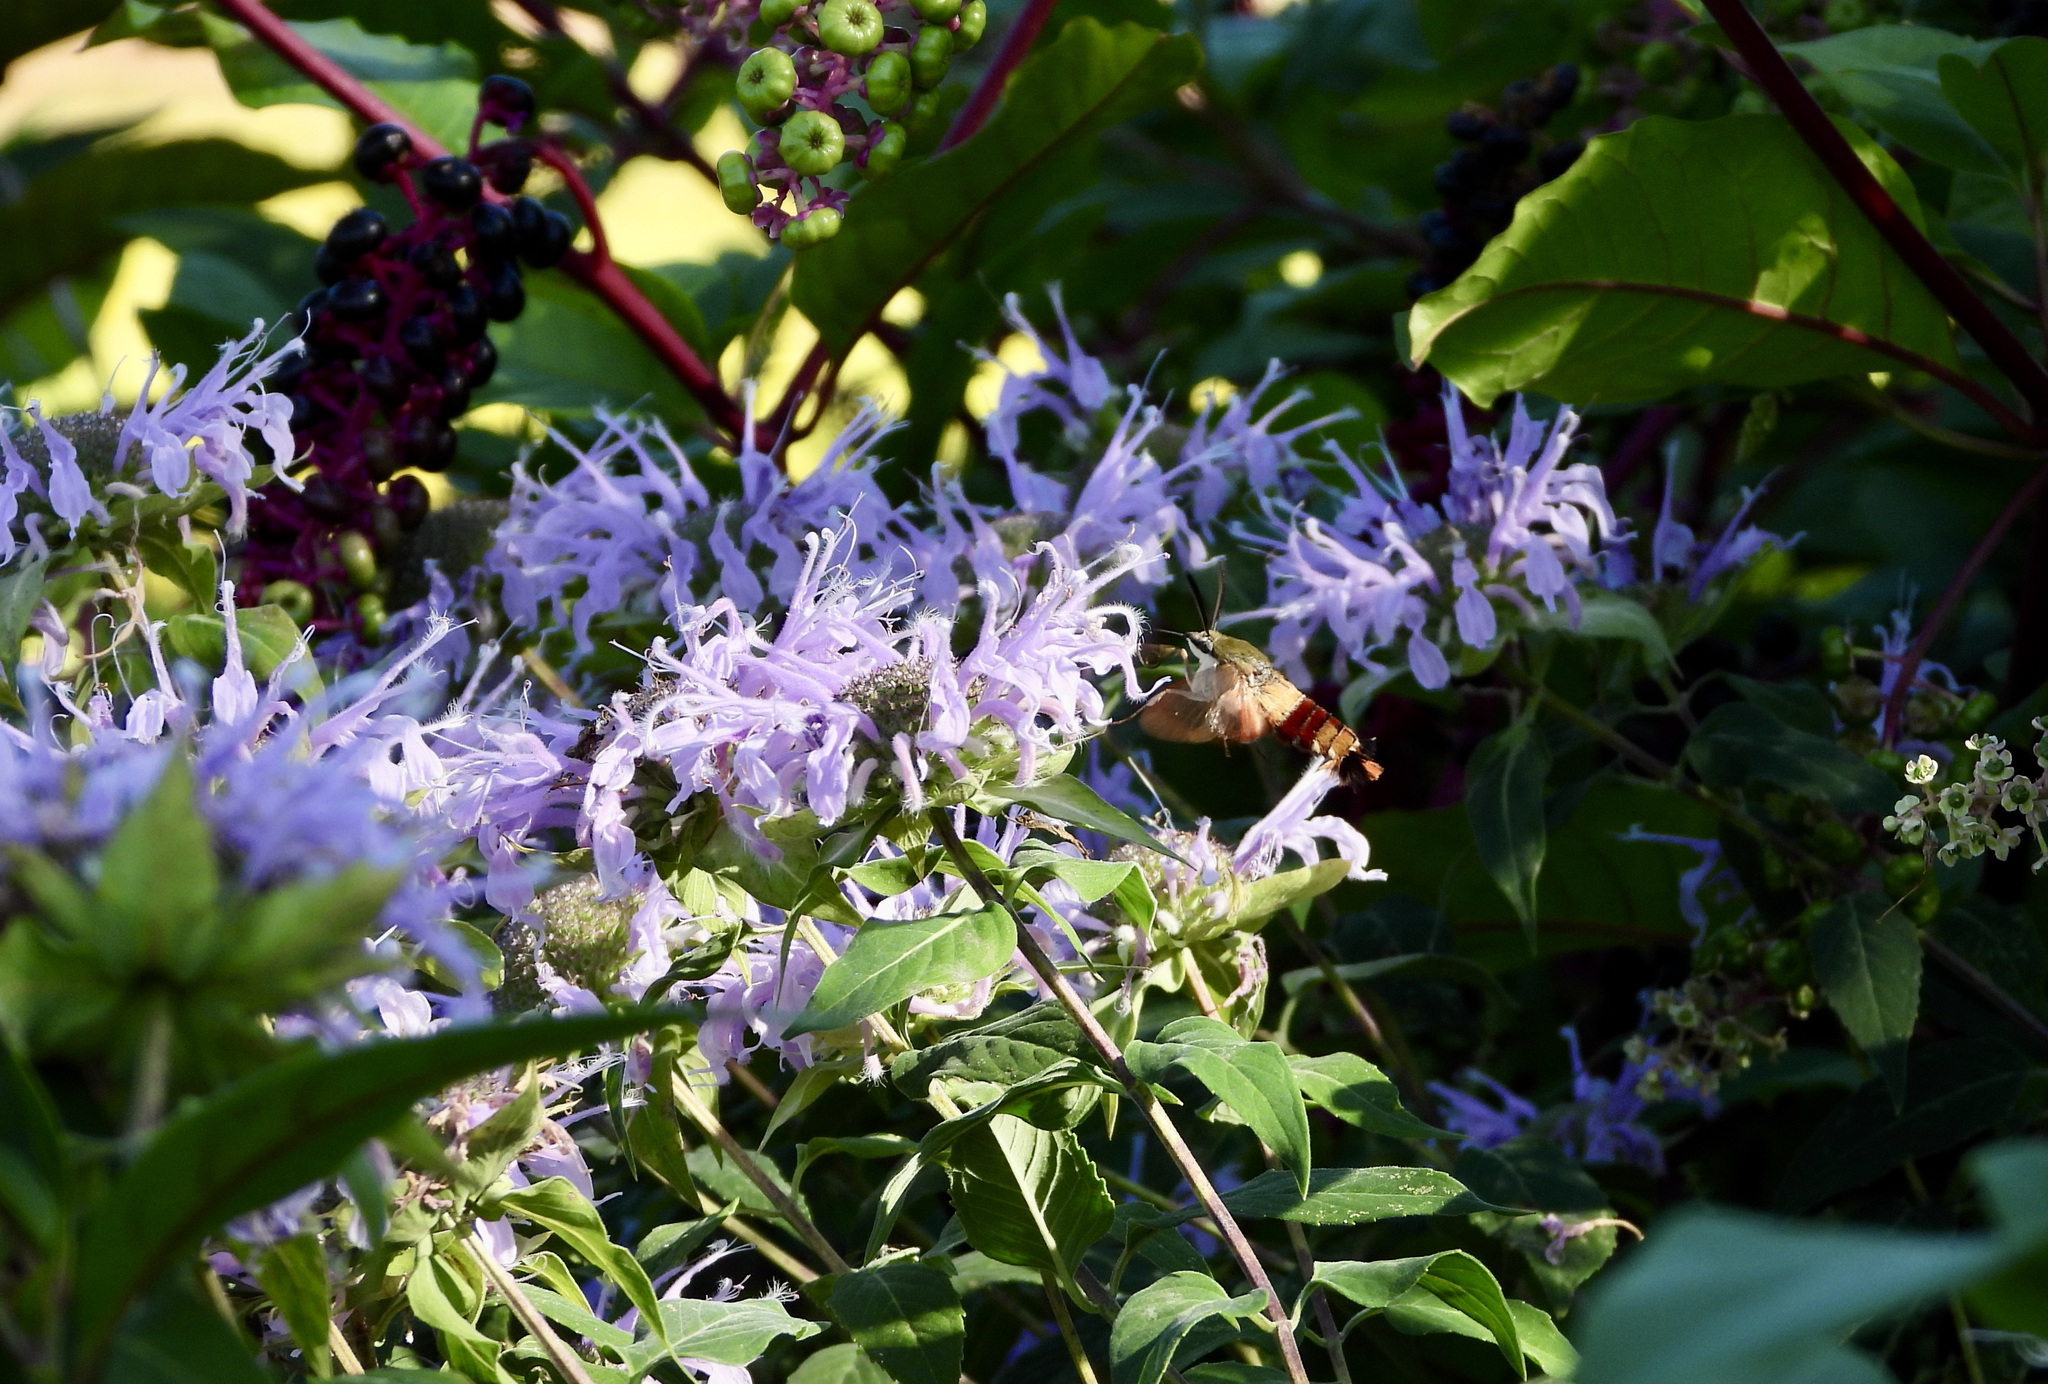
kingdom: Animalia
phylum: Arthropoda
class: Insecta
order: Lepidoptera
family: Sphingidae
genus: Hemaris
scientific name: Hemaris thysbe
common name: Common clear-wing
